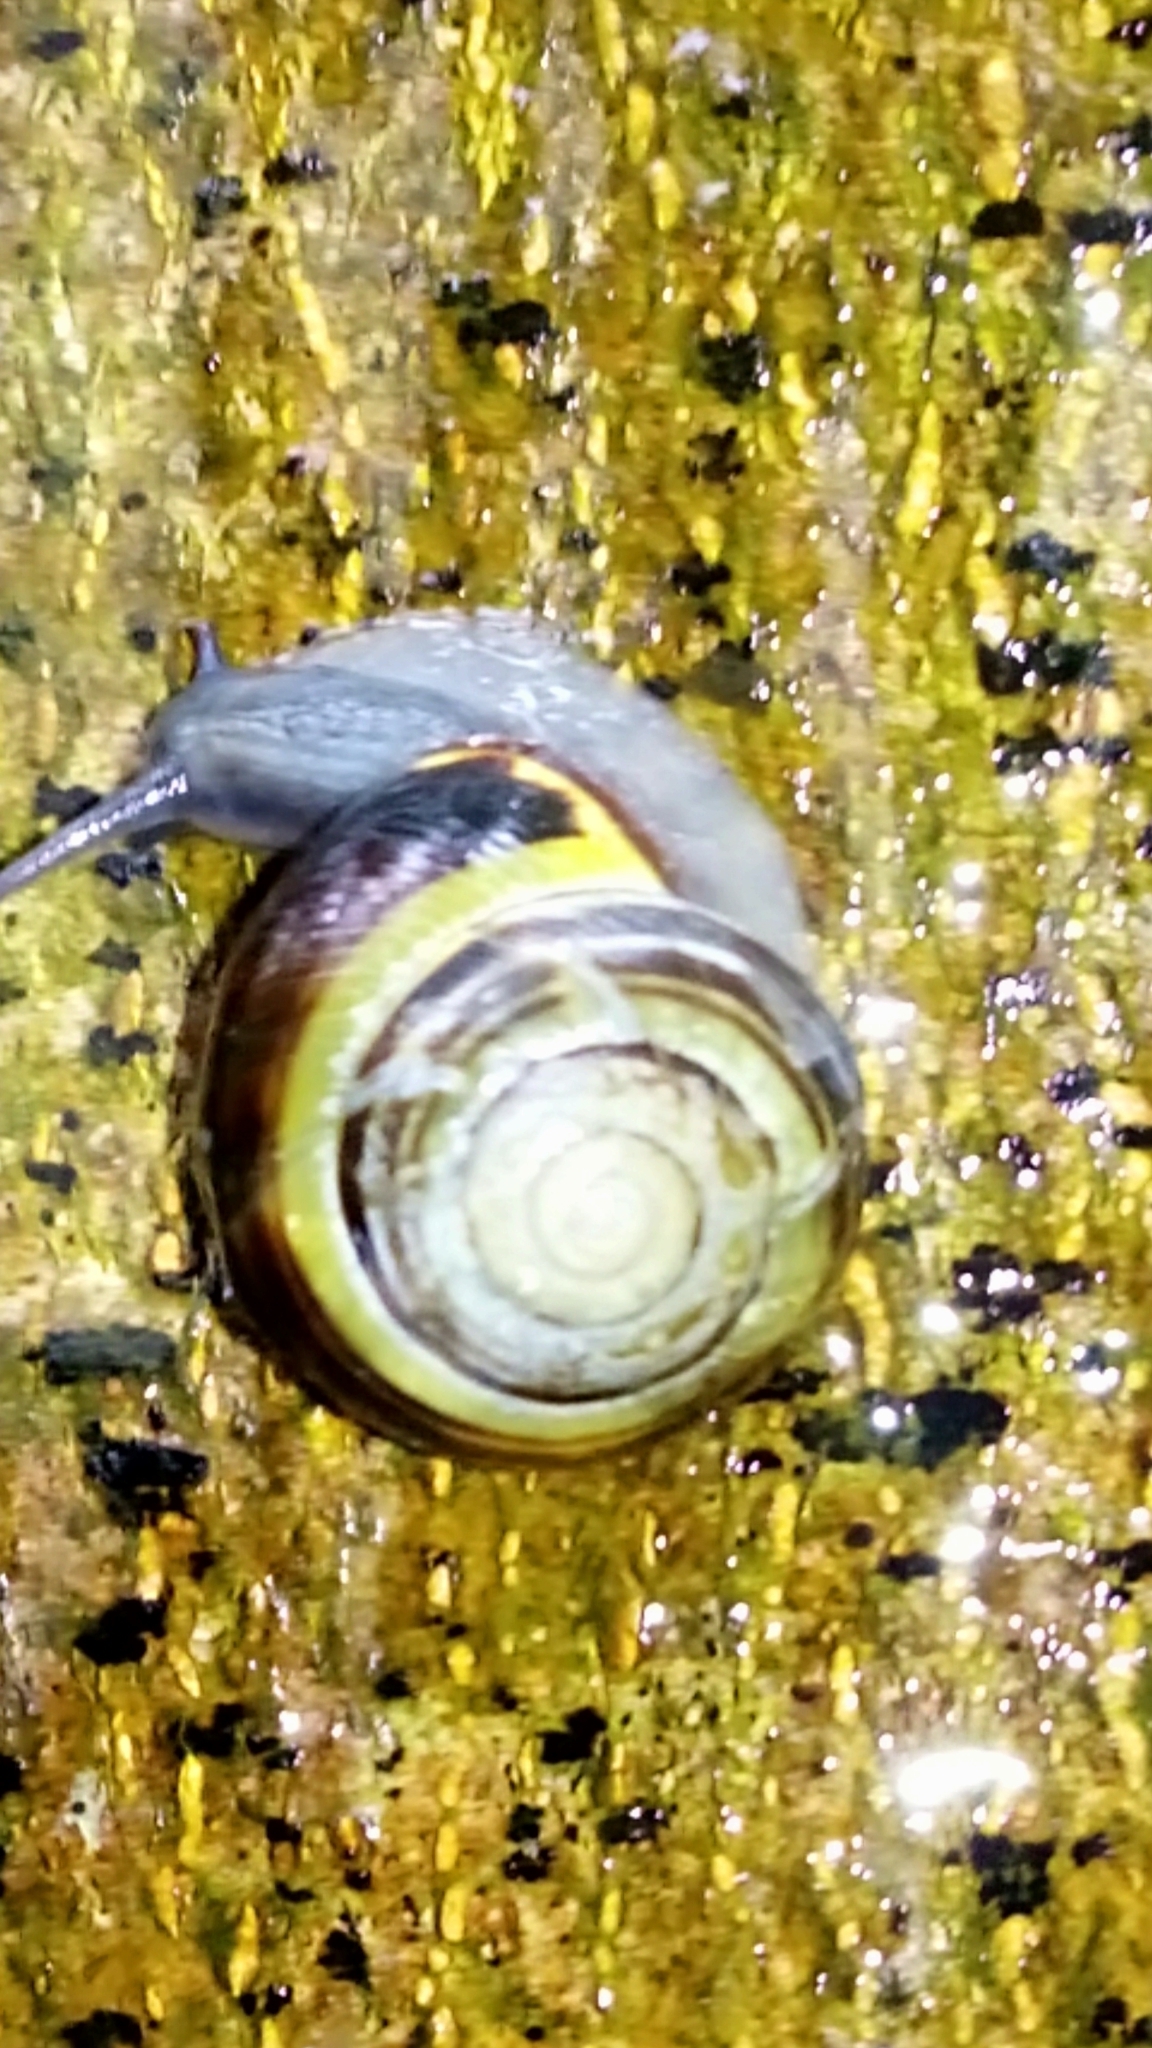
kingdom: Animalia
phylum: Mollusca
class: Gastropoda
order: Stylommatophora
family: Helicidae
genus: Cepaea
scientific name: Cepaea nemoralis
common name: Grovesnail
